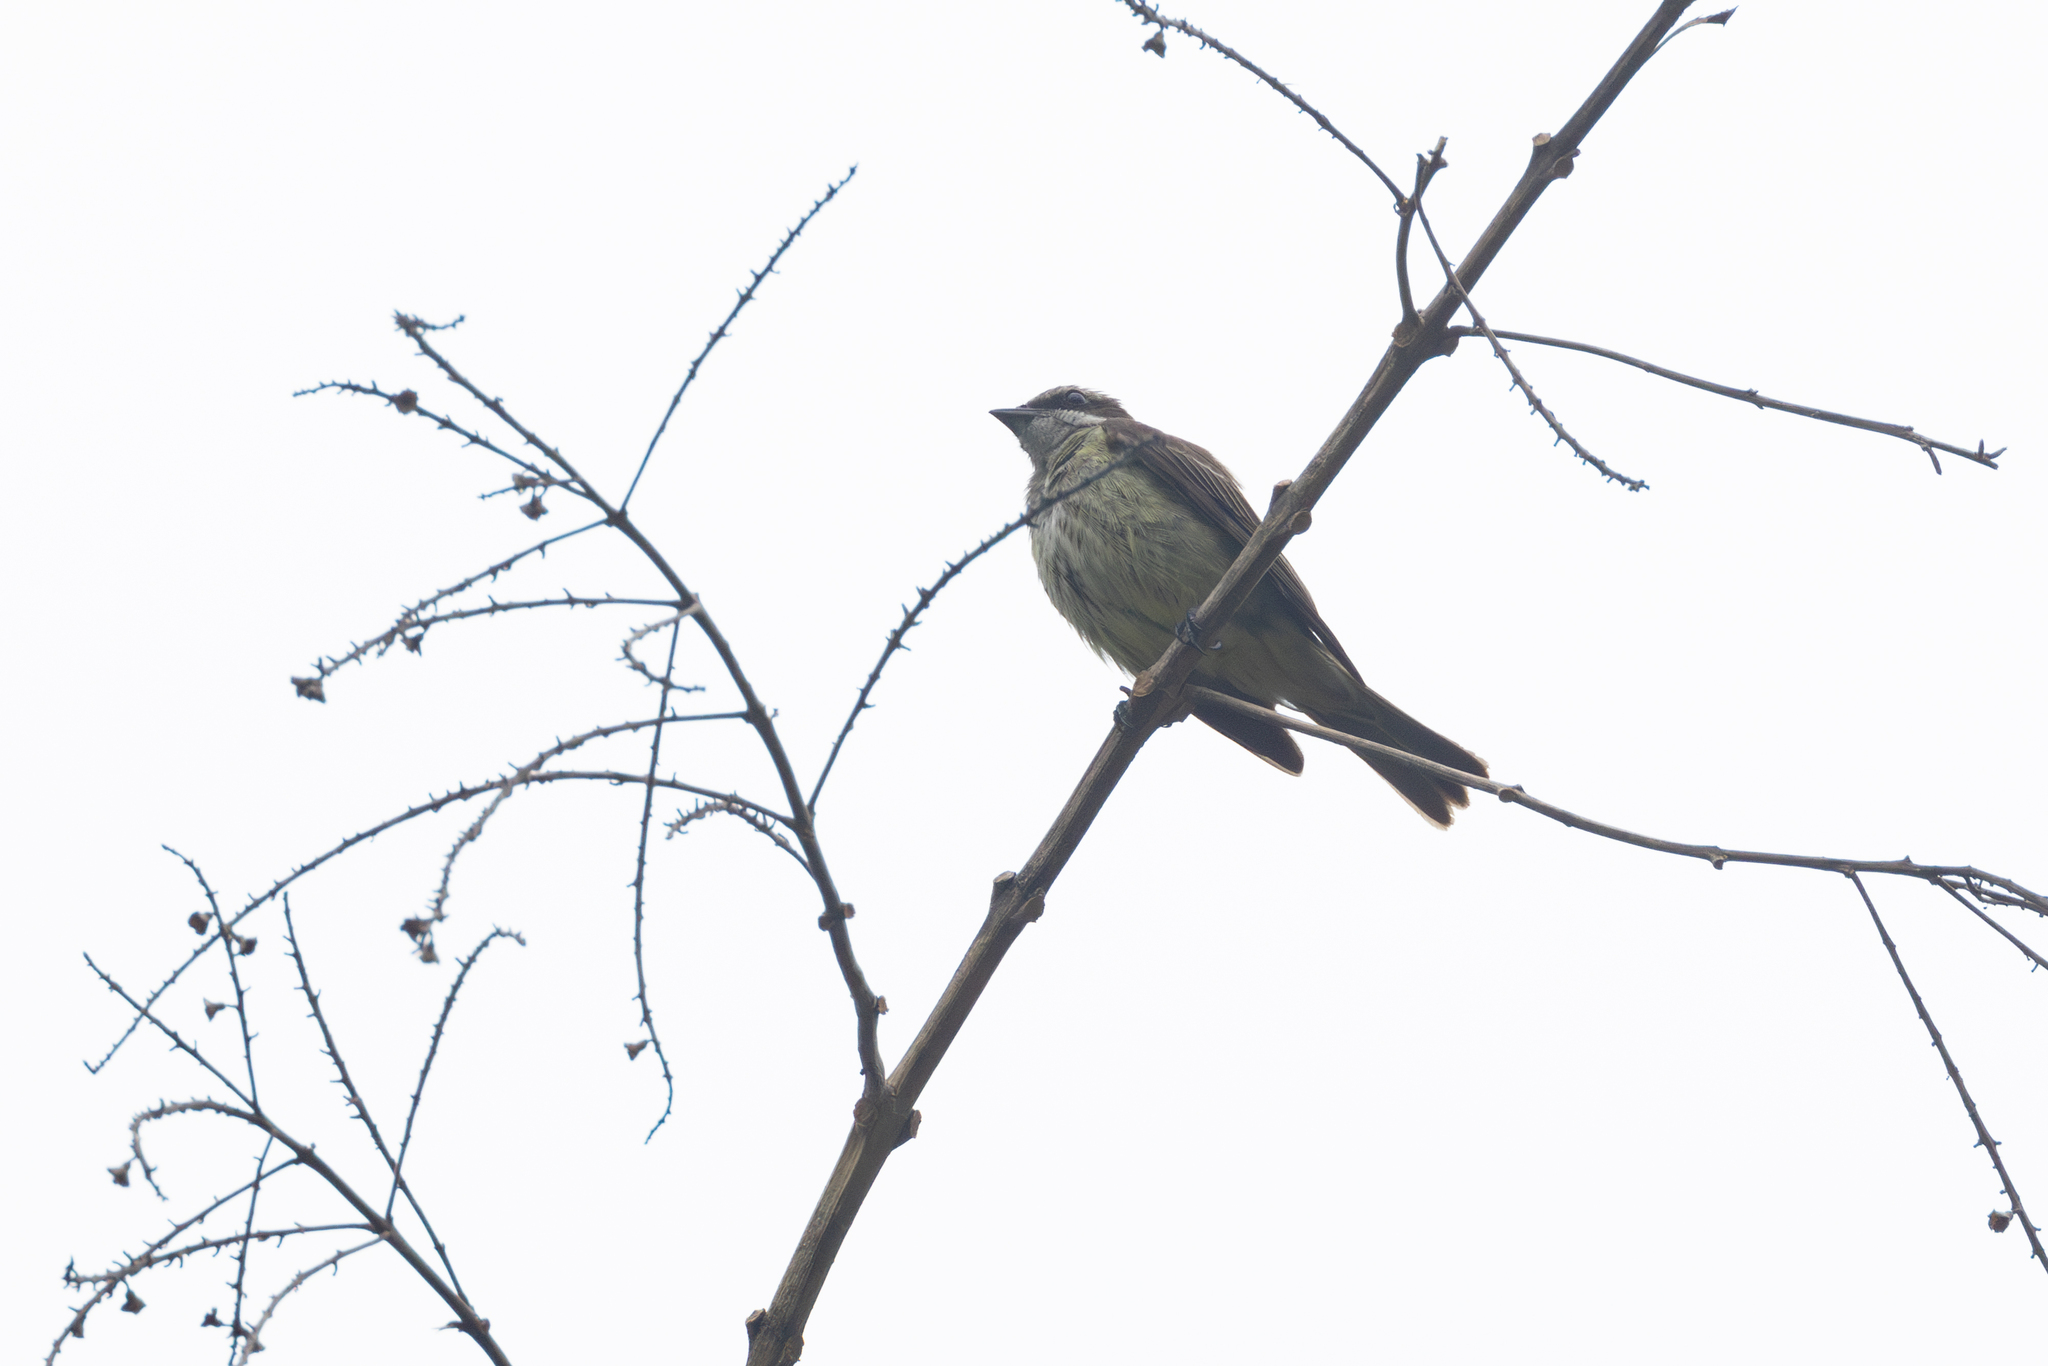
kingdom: Animalia
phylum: Chordata
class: Aves
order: Passeriformes
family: Tyrannidae
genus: Legatus
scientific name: Legatus leucophaius
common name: Piratic flycatcher
